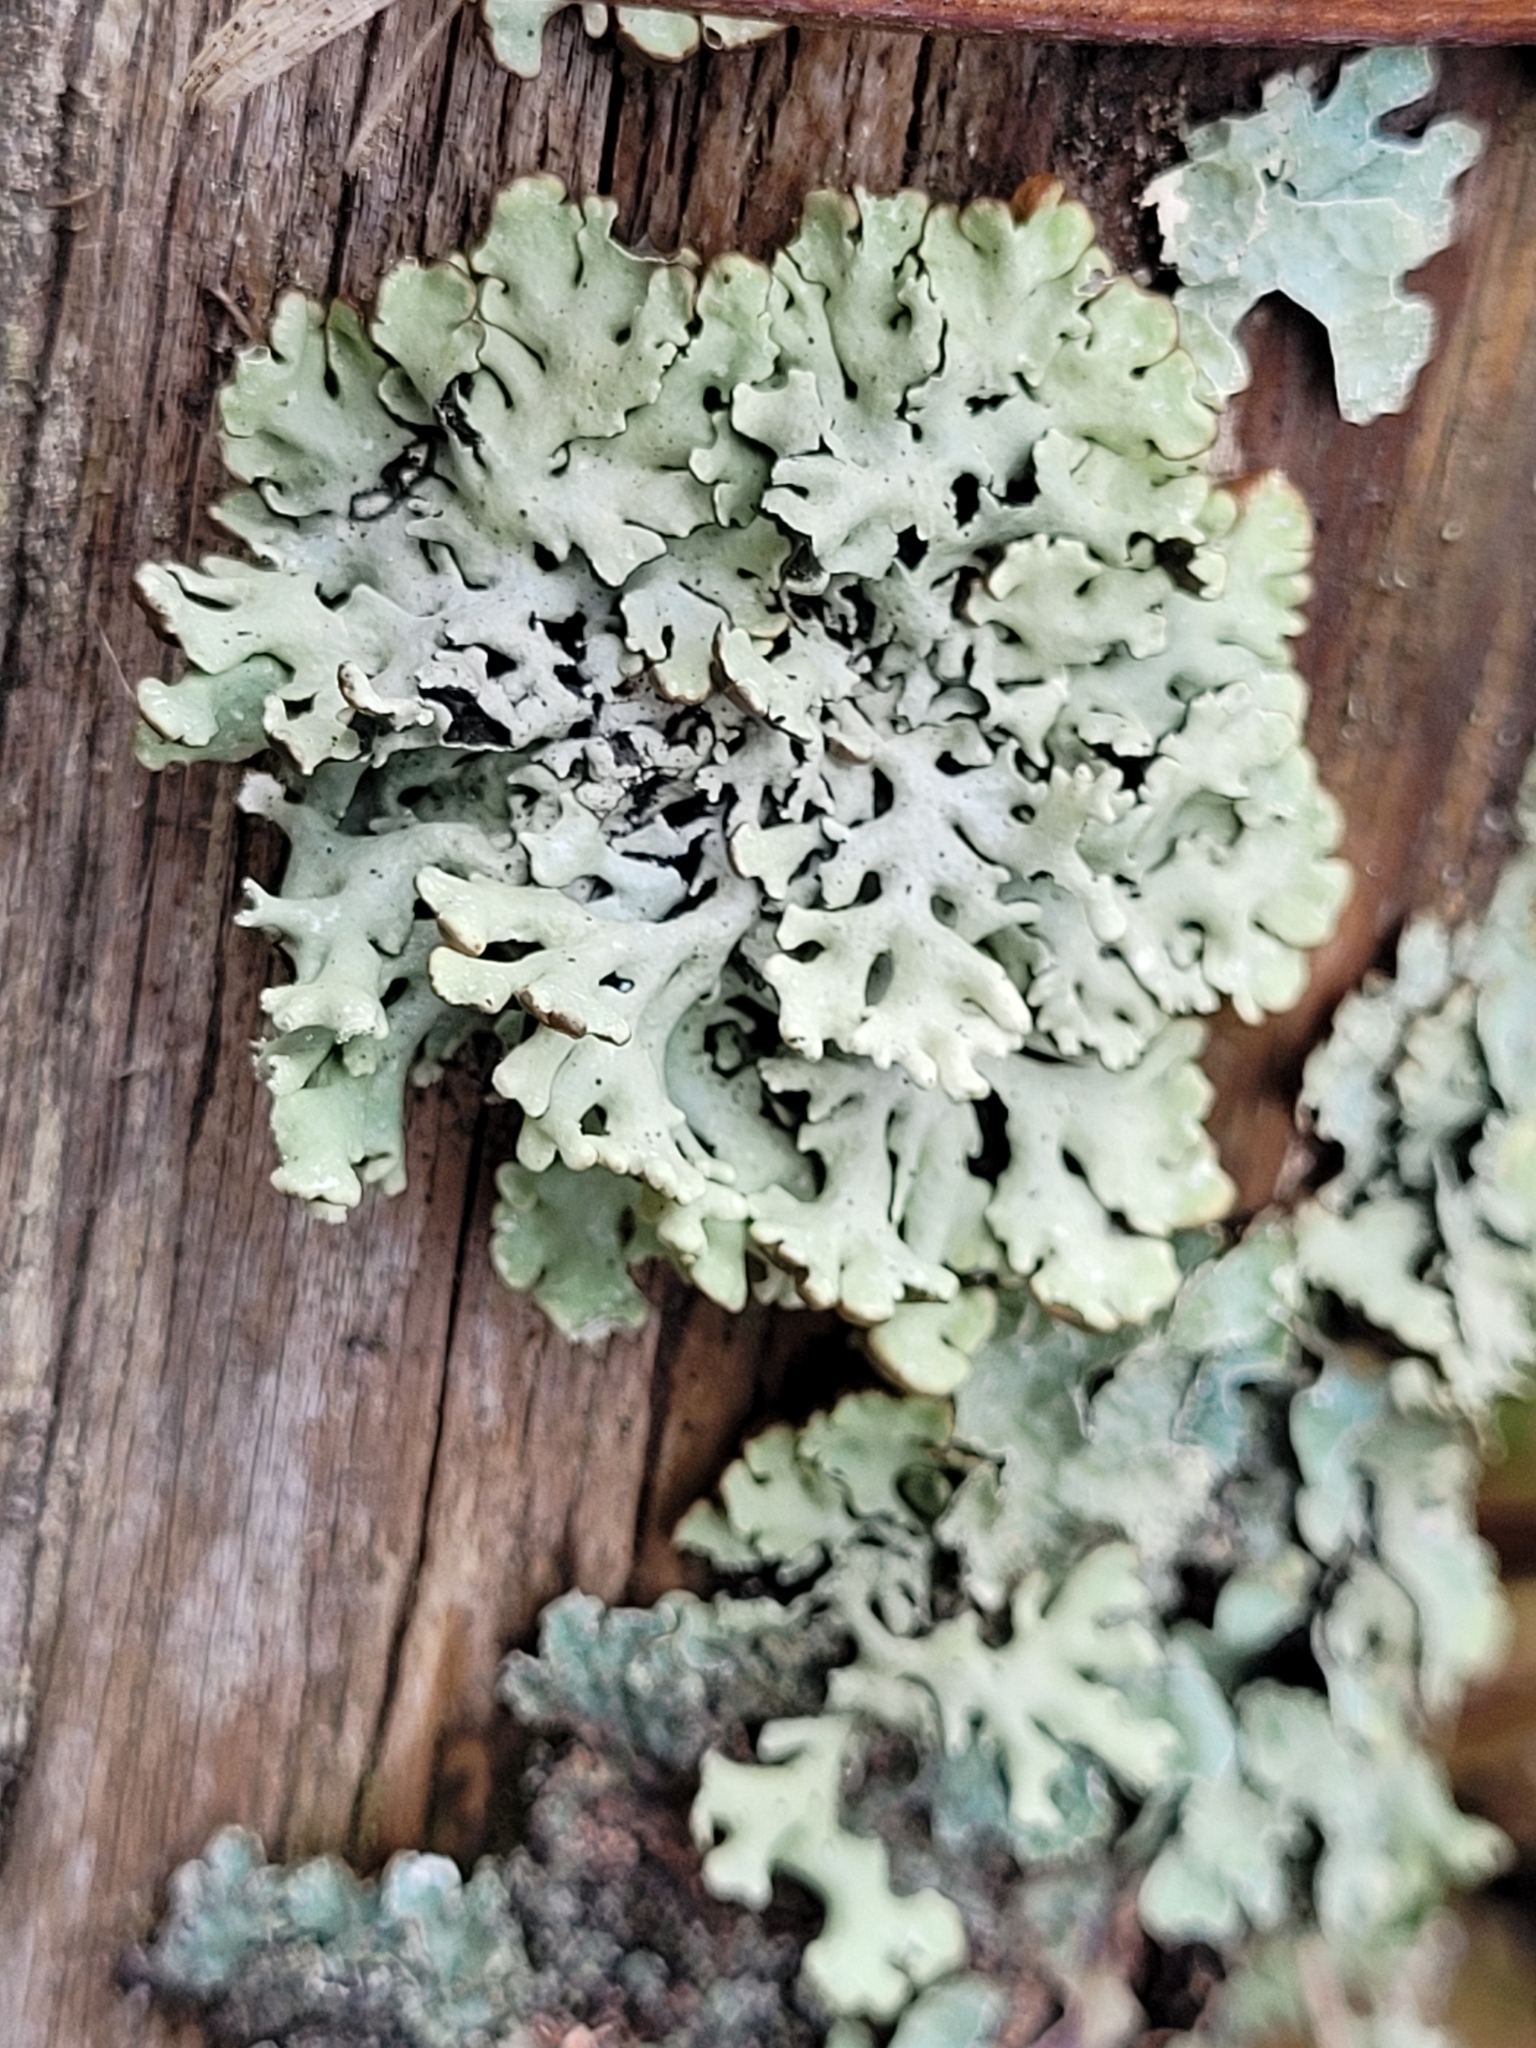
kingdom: Fungi
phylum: Ascomycota
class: Lecanoromycetes
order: Lecanorales
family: Parmeliaceae
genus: Hypogymnia
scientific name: Hypogymnia physodes
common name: Dark crottle
